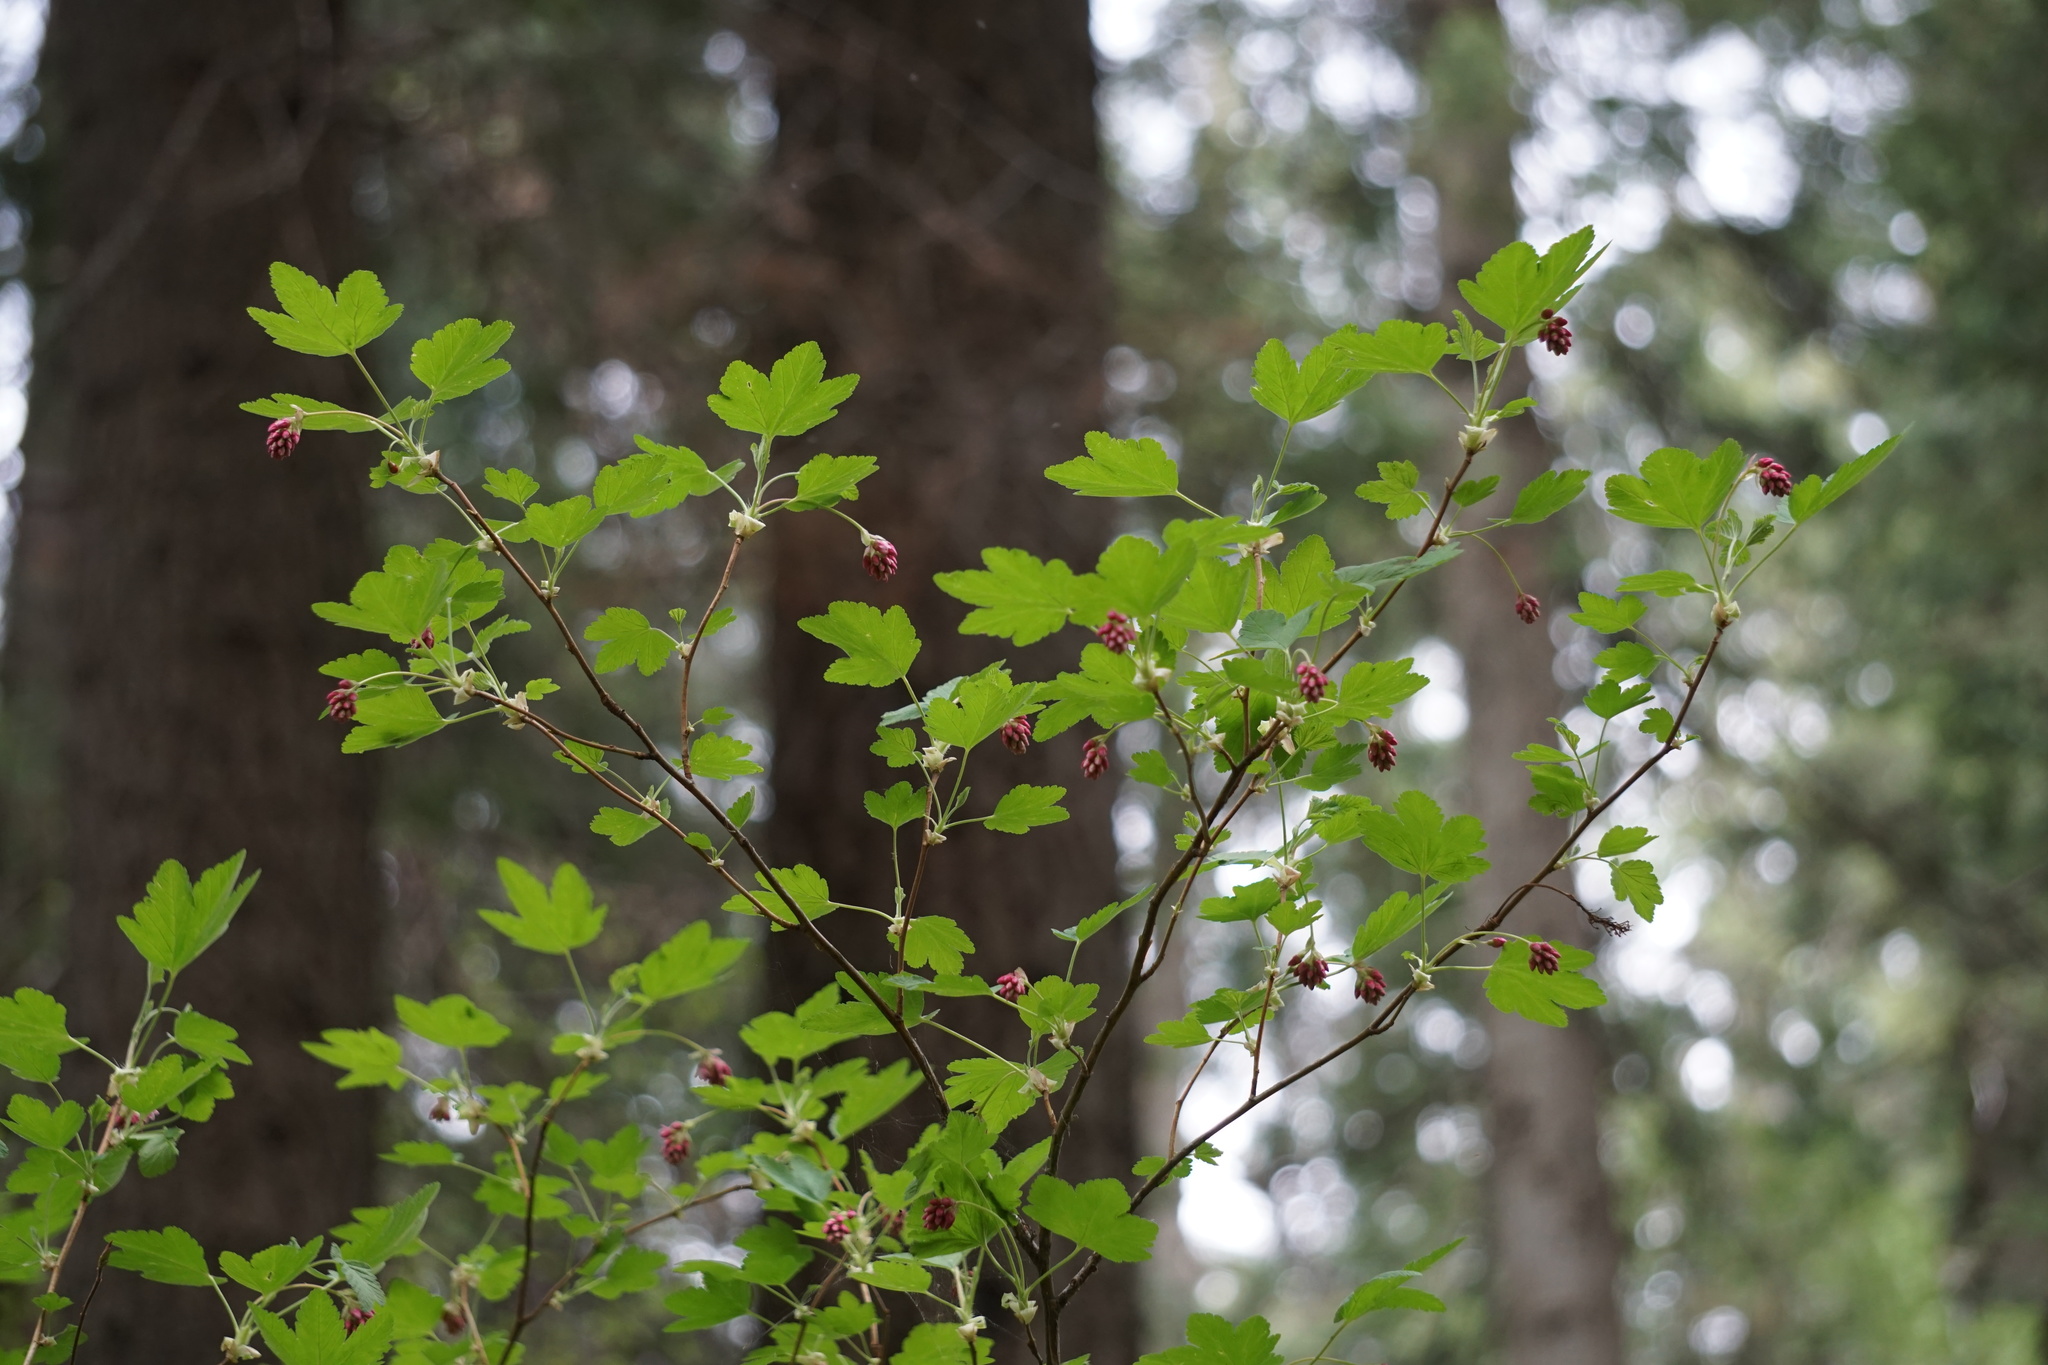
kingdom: Plantae
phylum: Tracheophyta
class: Magnoliopsida
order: Saxifragales
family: Grossulariaceae
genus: Ribes
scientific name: Ribes nevadense
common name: Mountain pink currant
